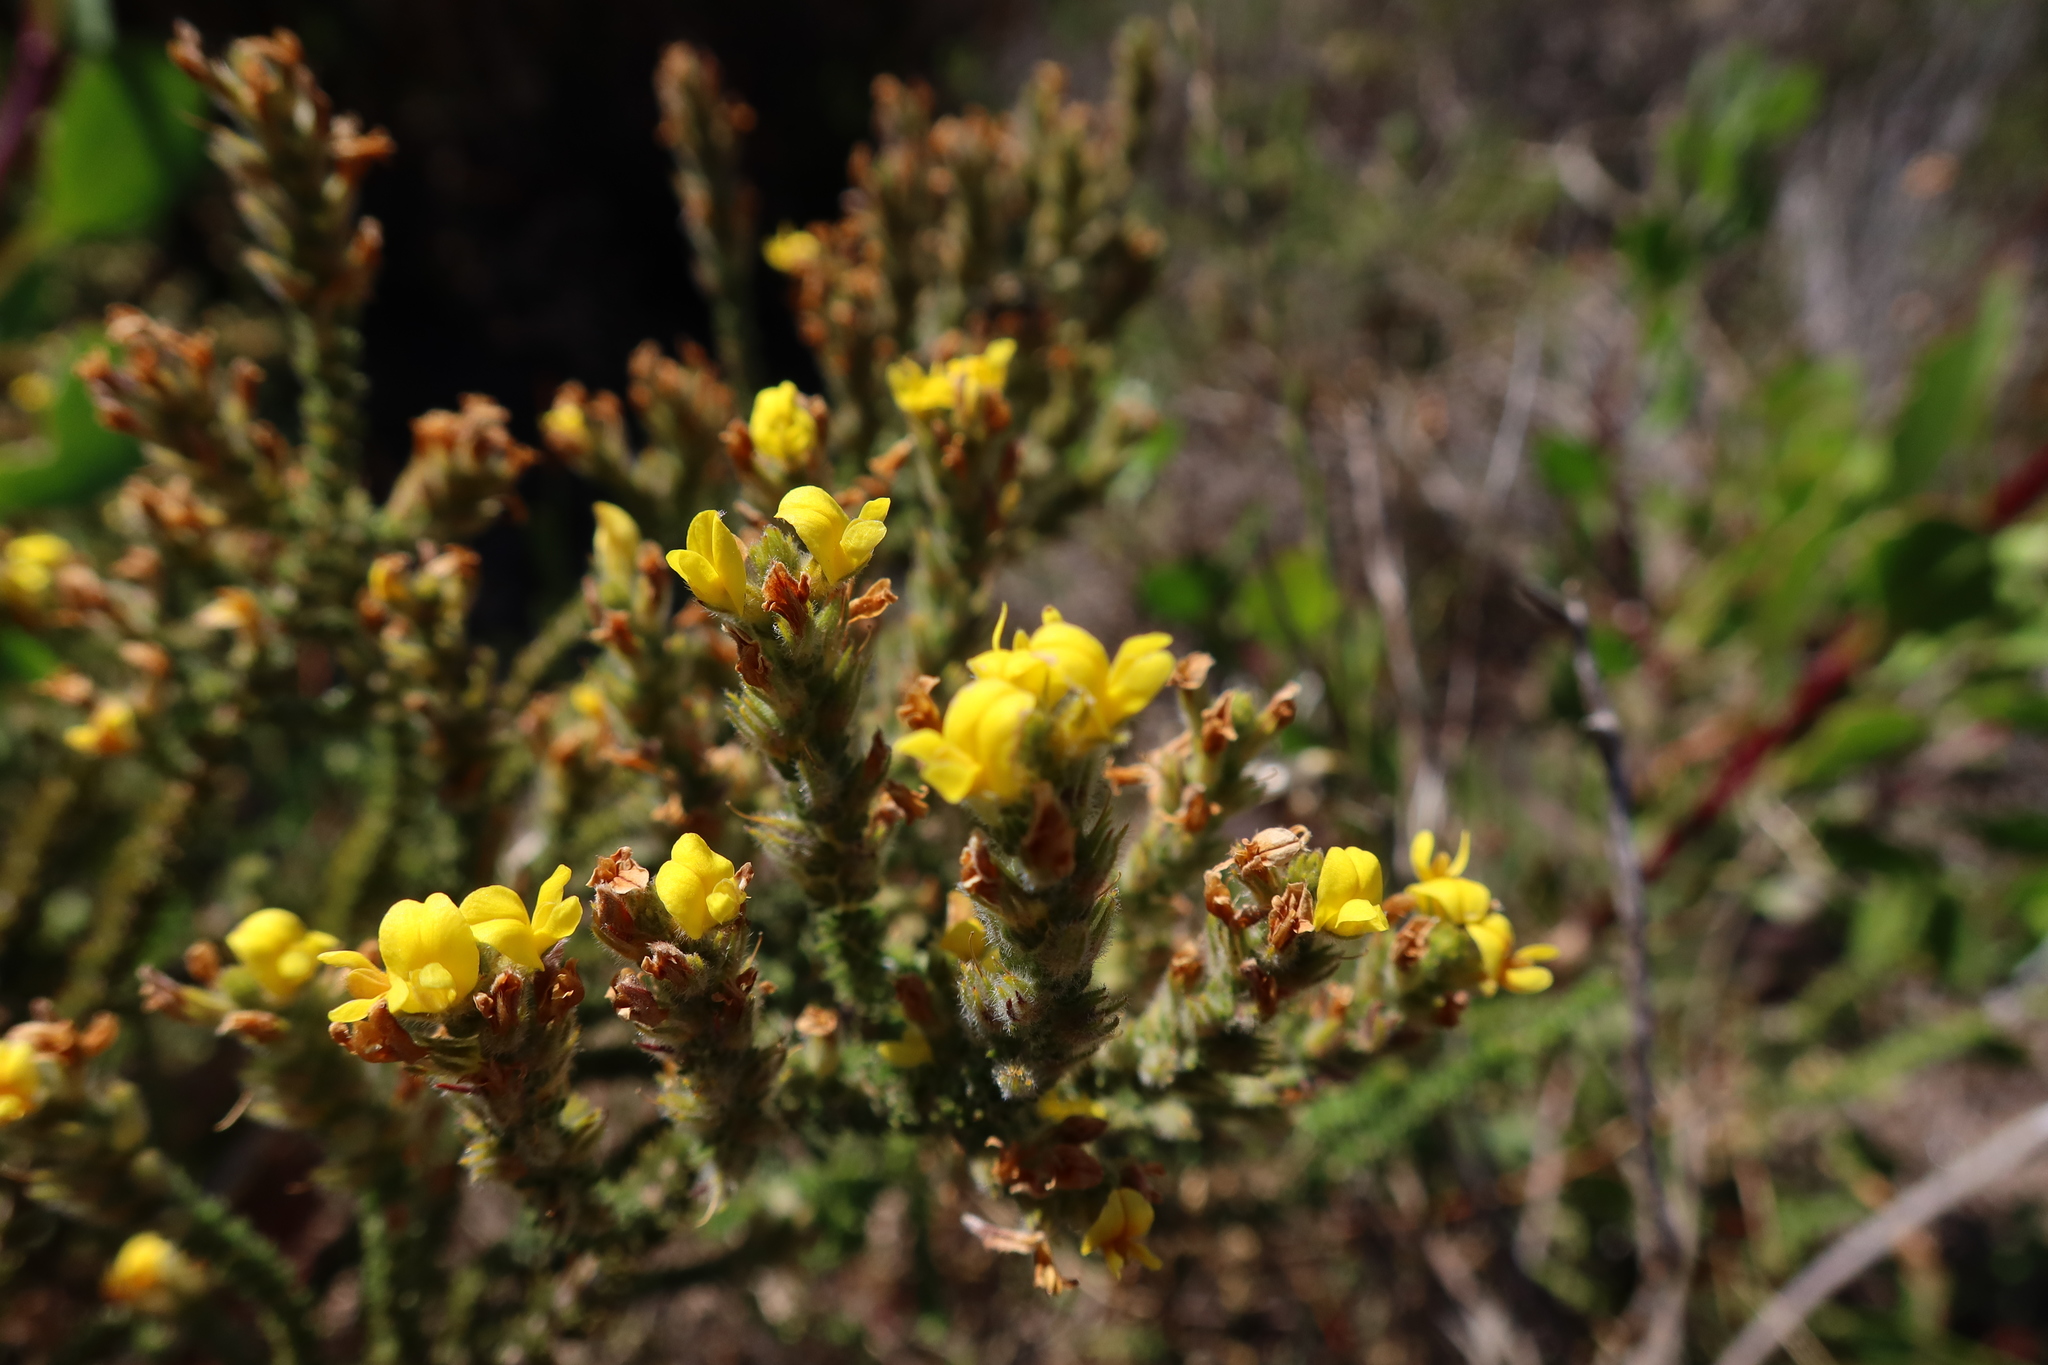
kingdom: Plantae
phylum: Tracheophyta
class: Magnoliopsida
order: Fabales
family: Fabaceae
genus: Aspalathus
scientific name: Aspalathus ericifolia
